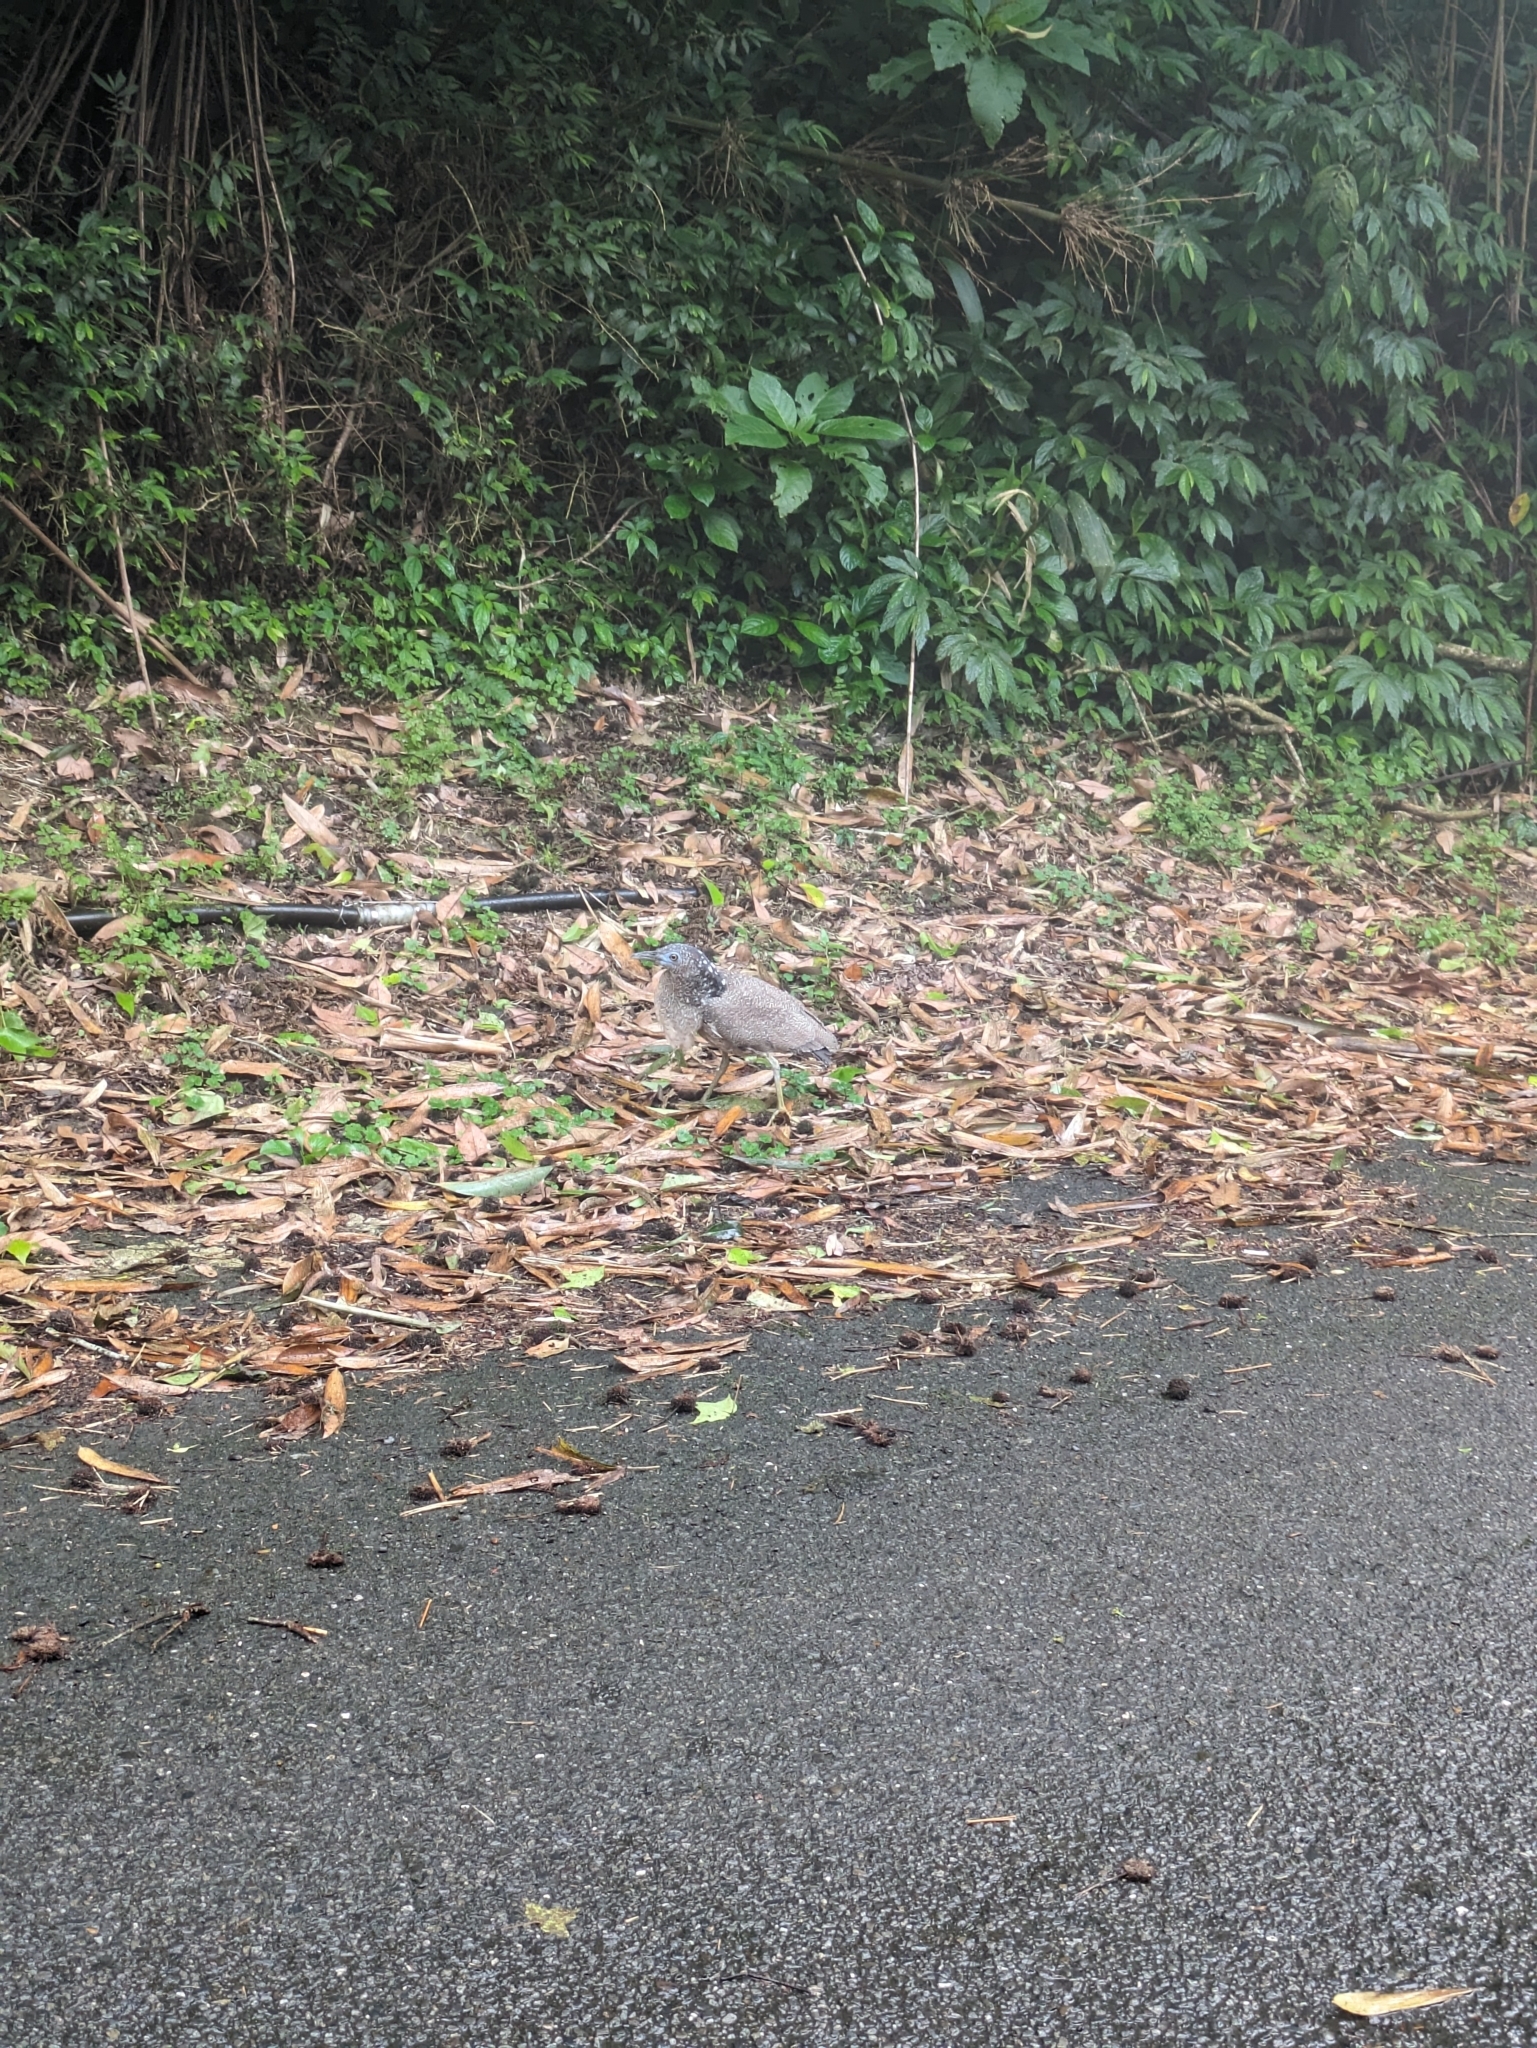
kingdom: Animalia
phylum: Chordata
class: Aves
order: Pelecaniformes
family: Ardeidae
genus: Gorsachius
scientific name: Gorsachius melanolophus
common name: Malayan night heron
